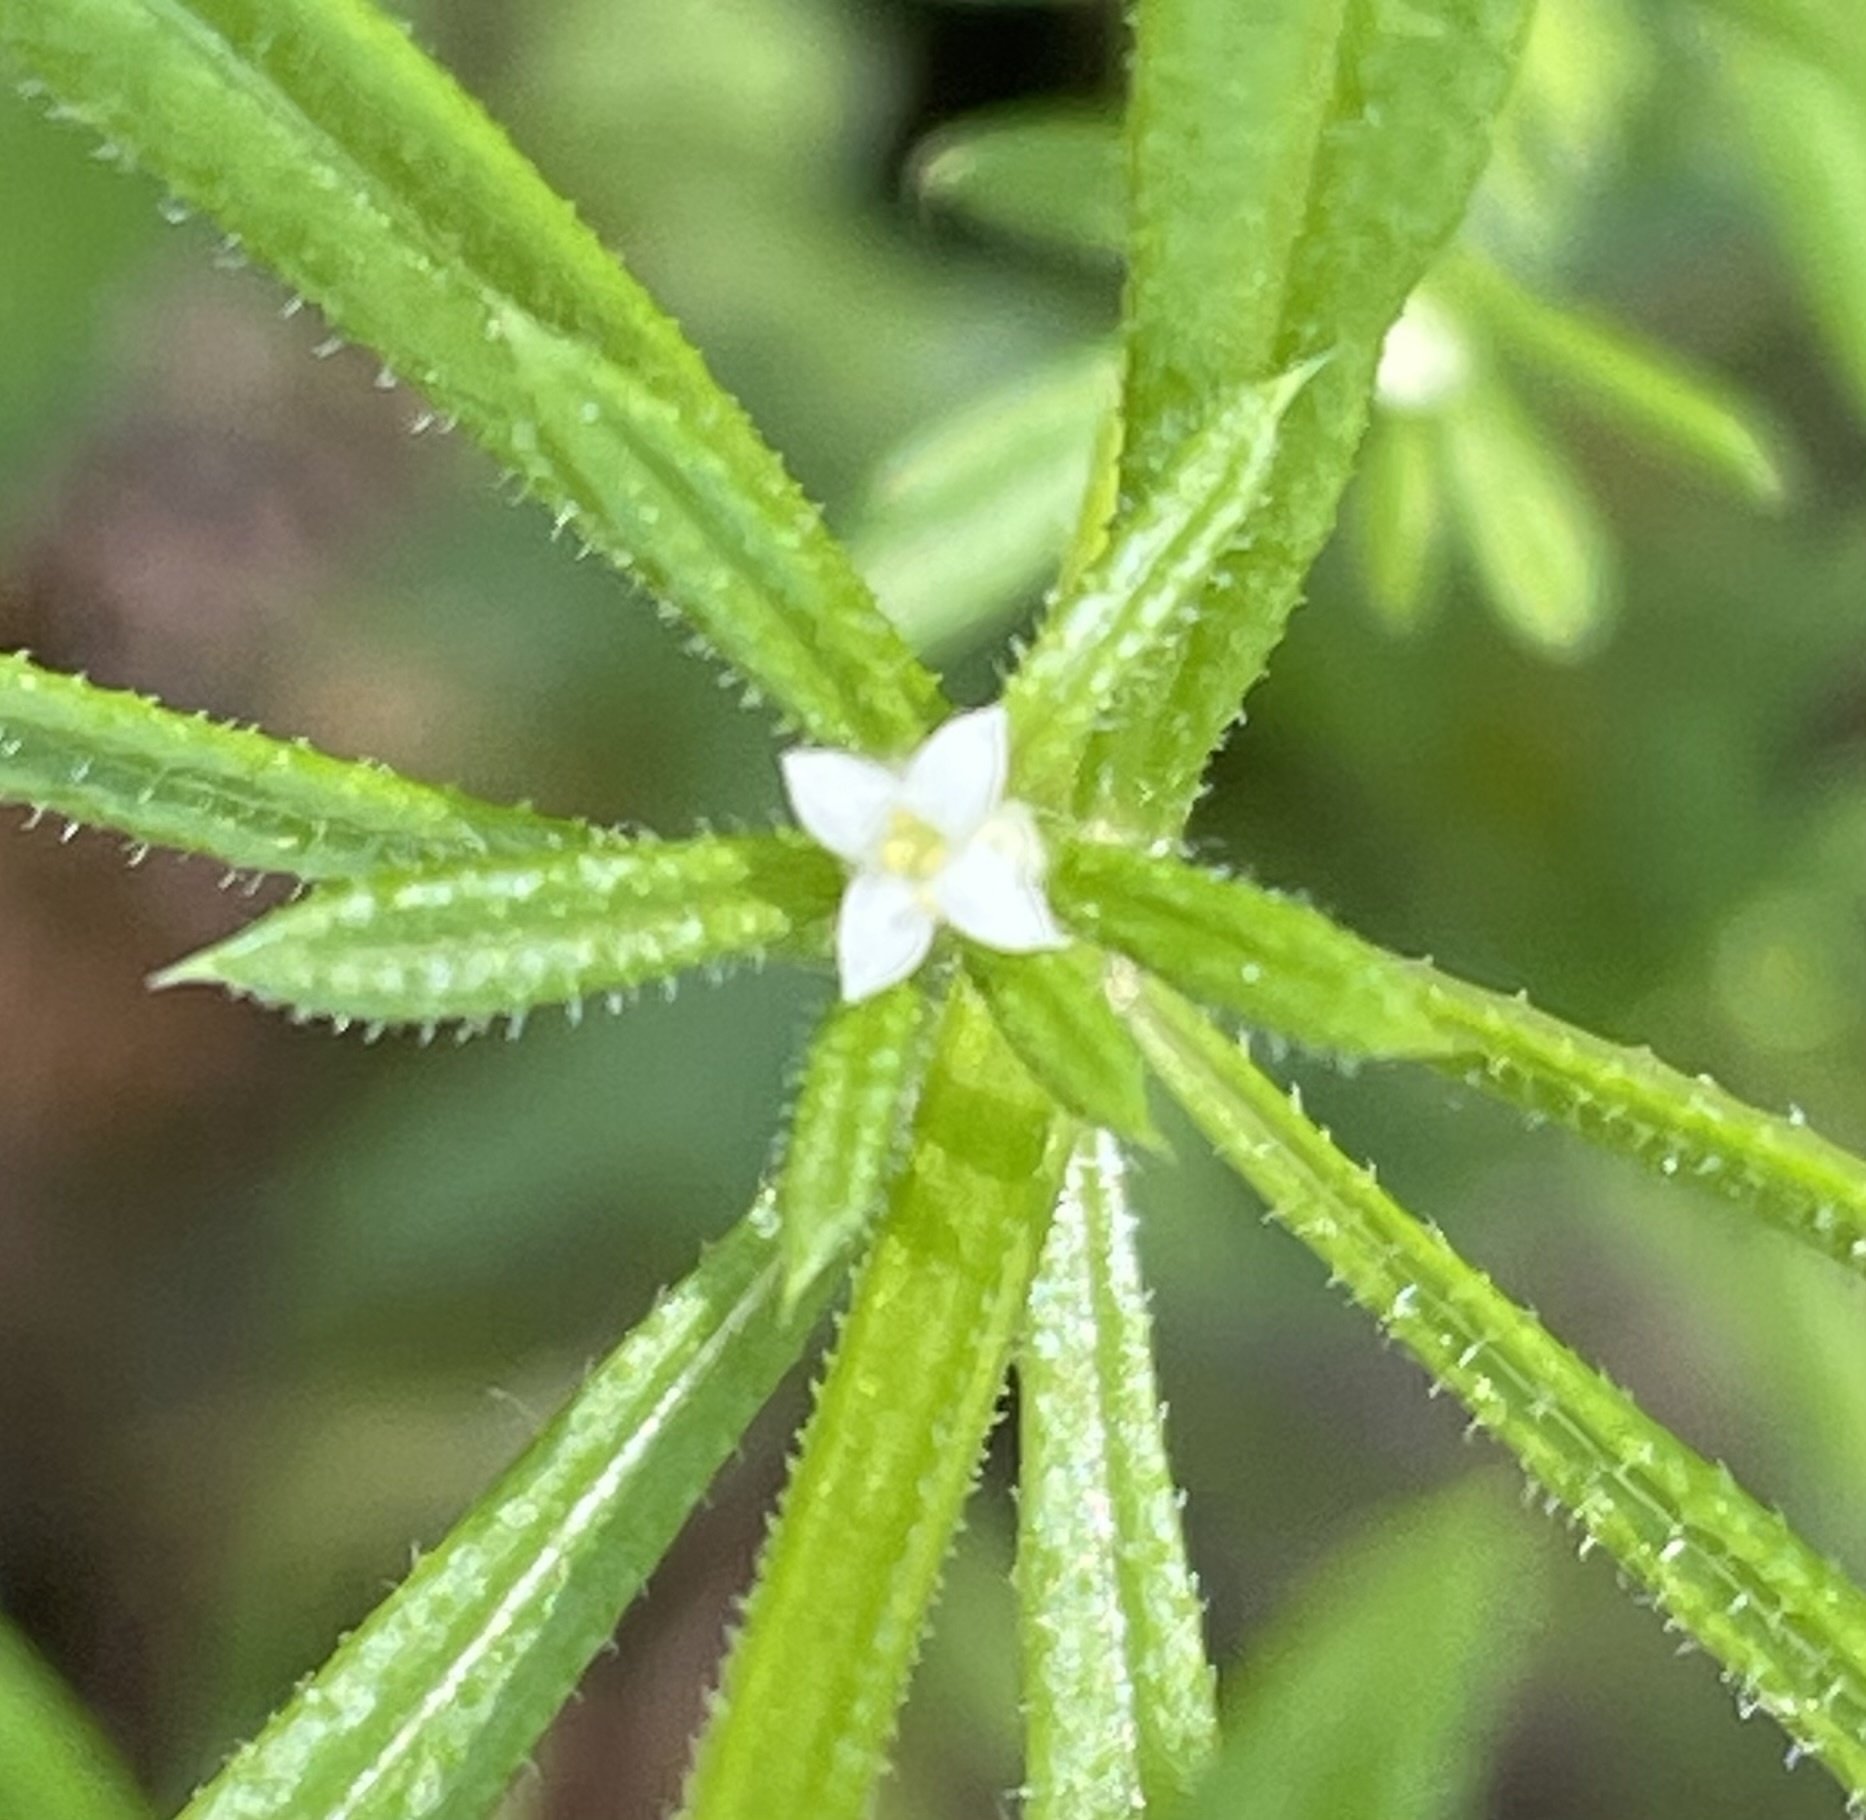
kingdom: Plantae
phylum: Tracheophyta
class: Magnoliopsida
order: Gentianales
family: Rubiaceae
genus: Galium
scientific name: Galium aparine
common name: Cleavers
